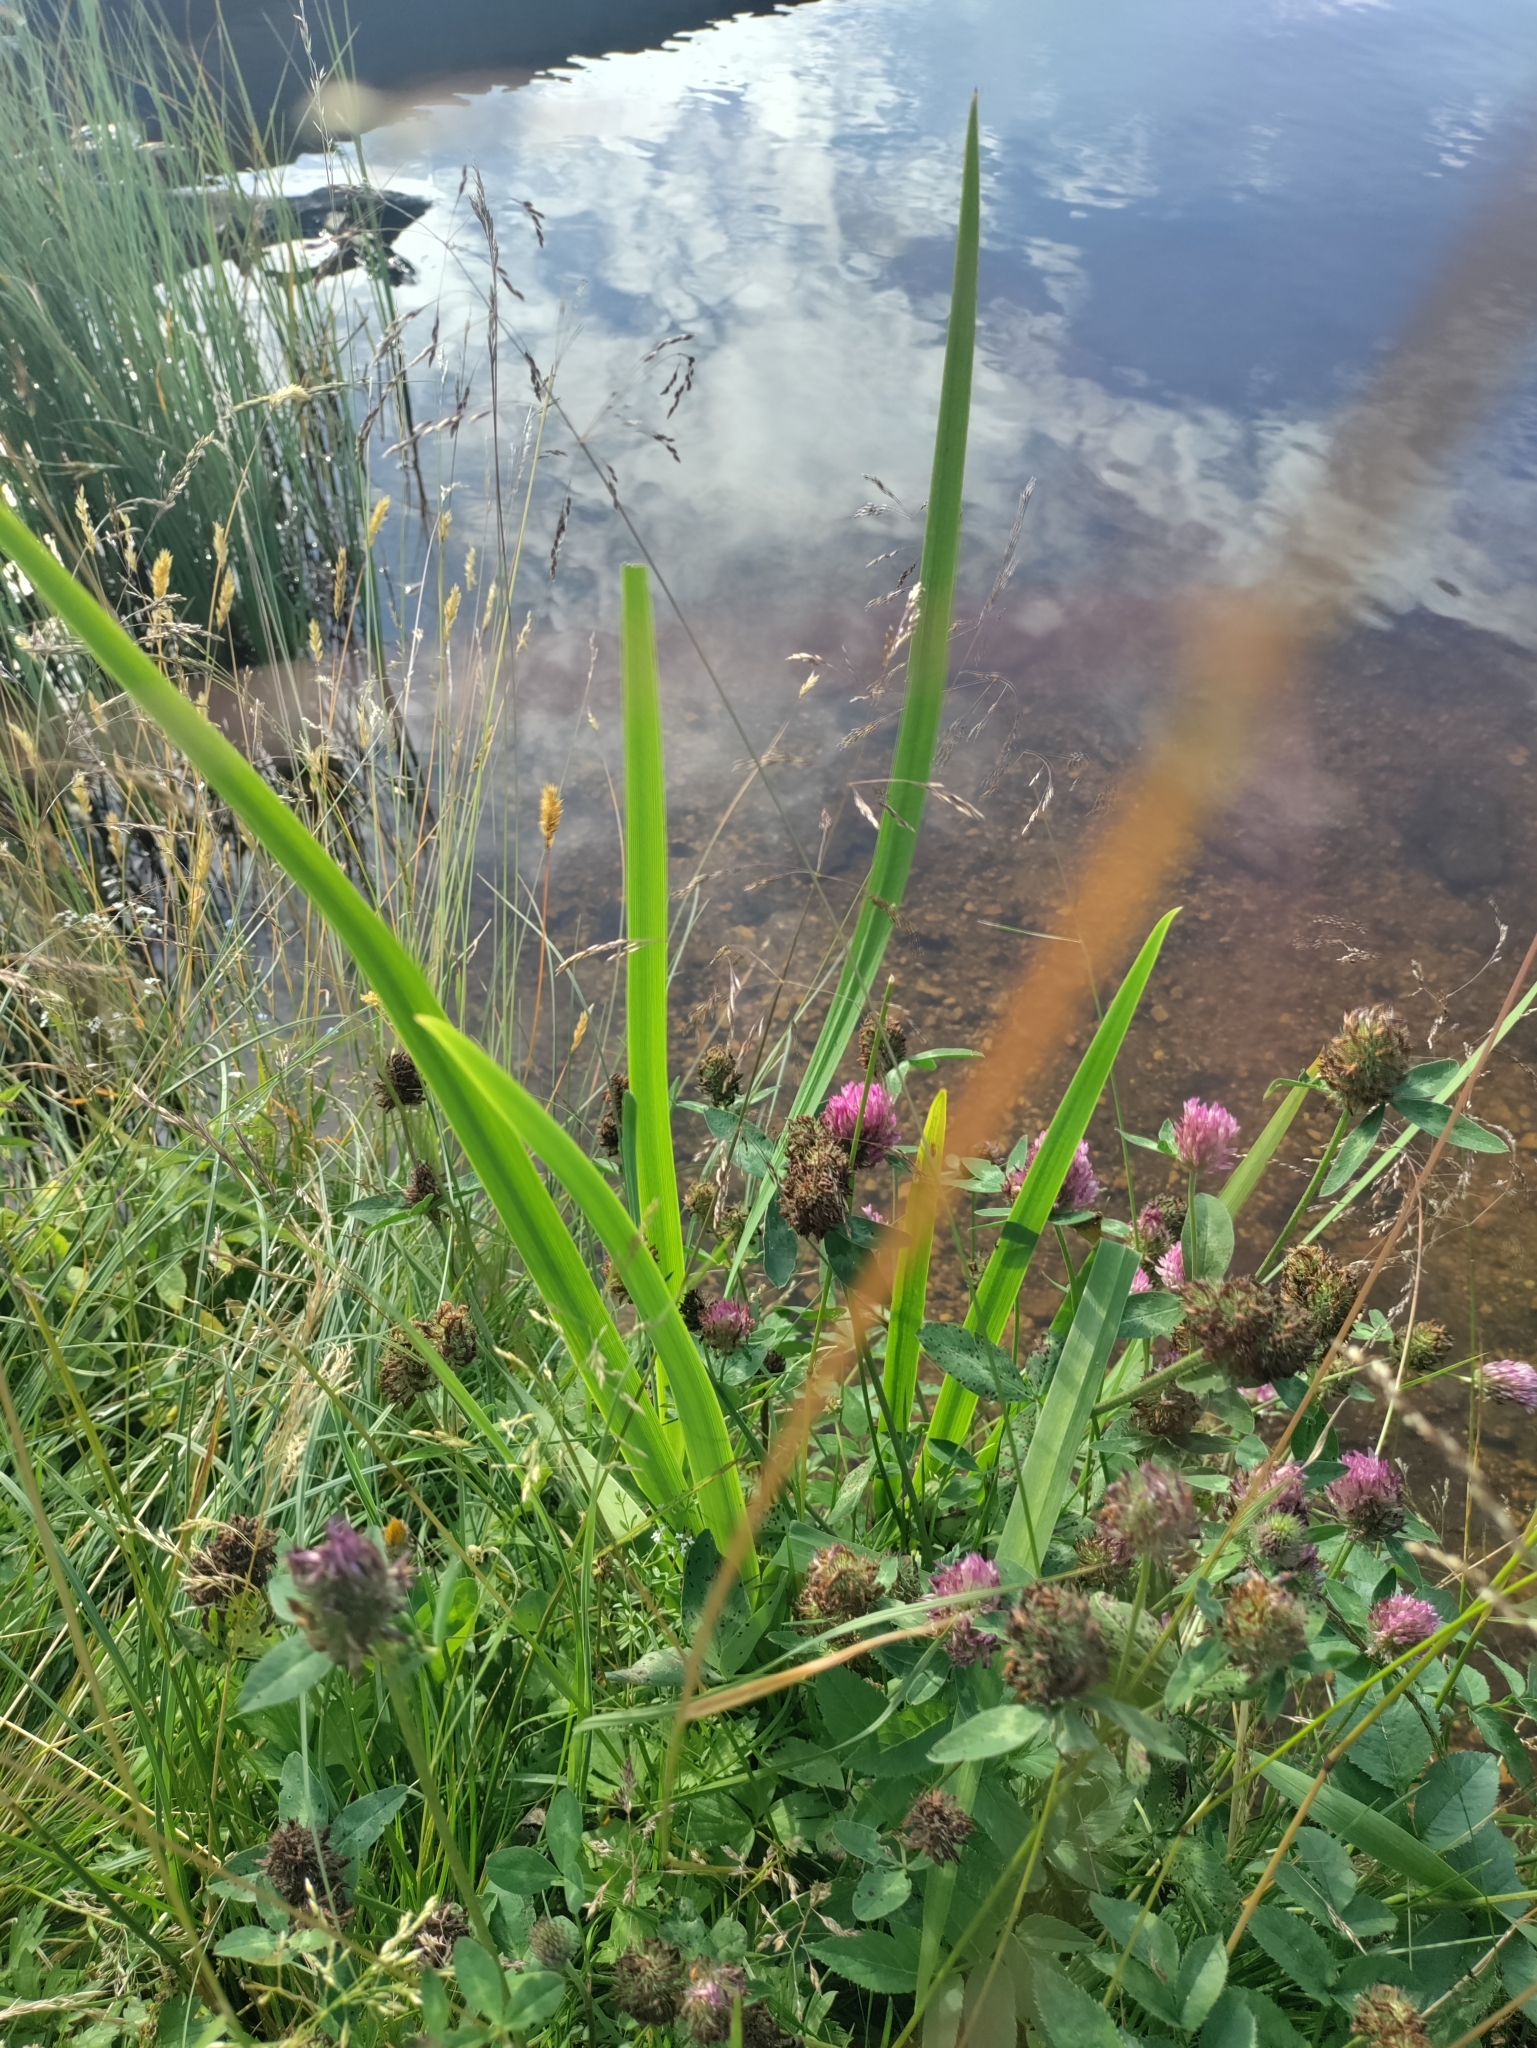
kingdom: Plantae
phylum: Tracheophyta
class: Liliopsida
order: Asparagales
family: Iridaceae
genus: Iris
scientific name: Iris pseudacorus
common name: Yellow flag
